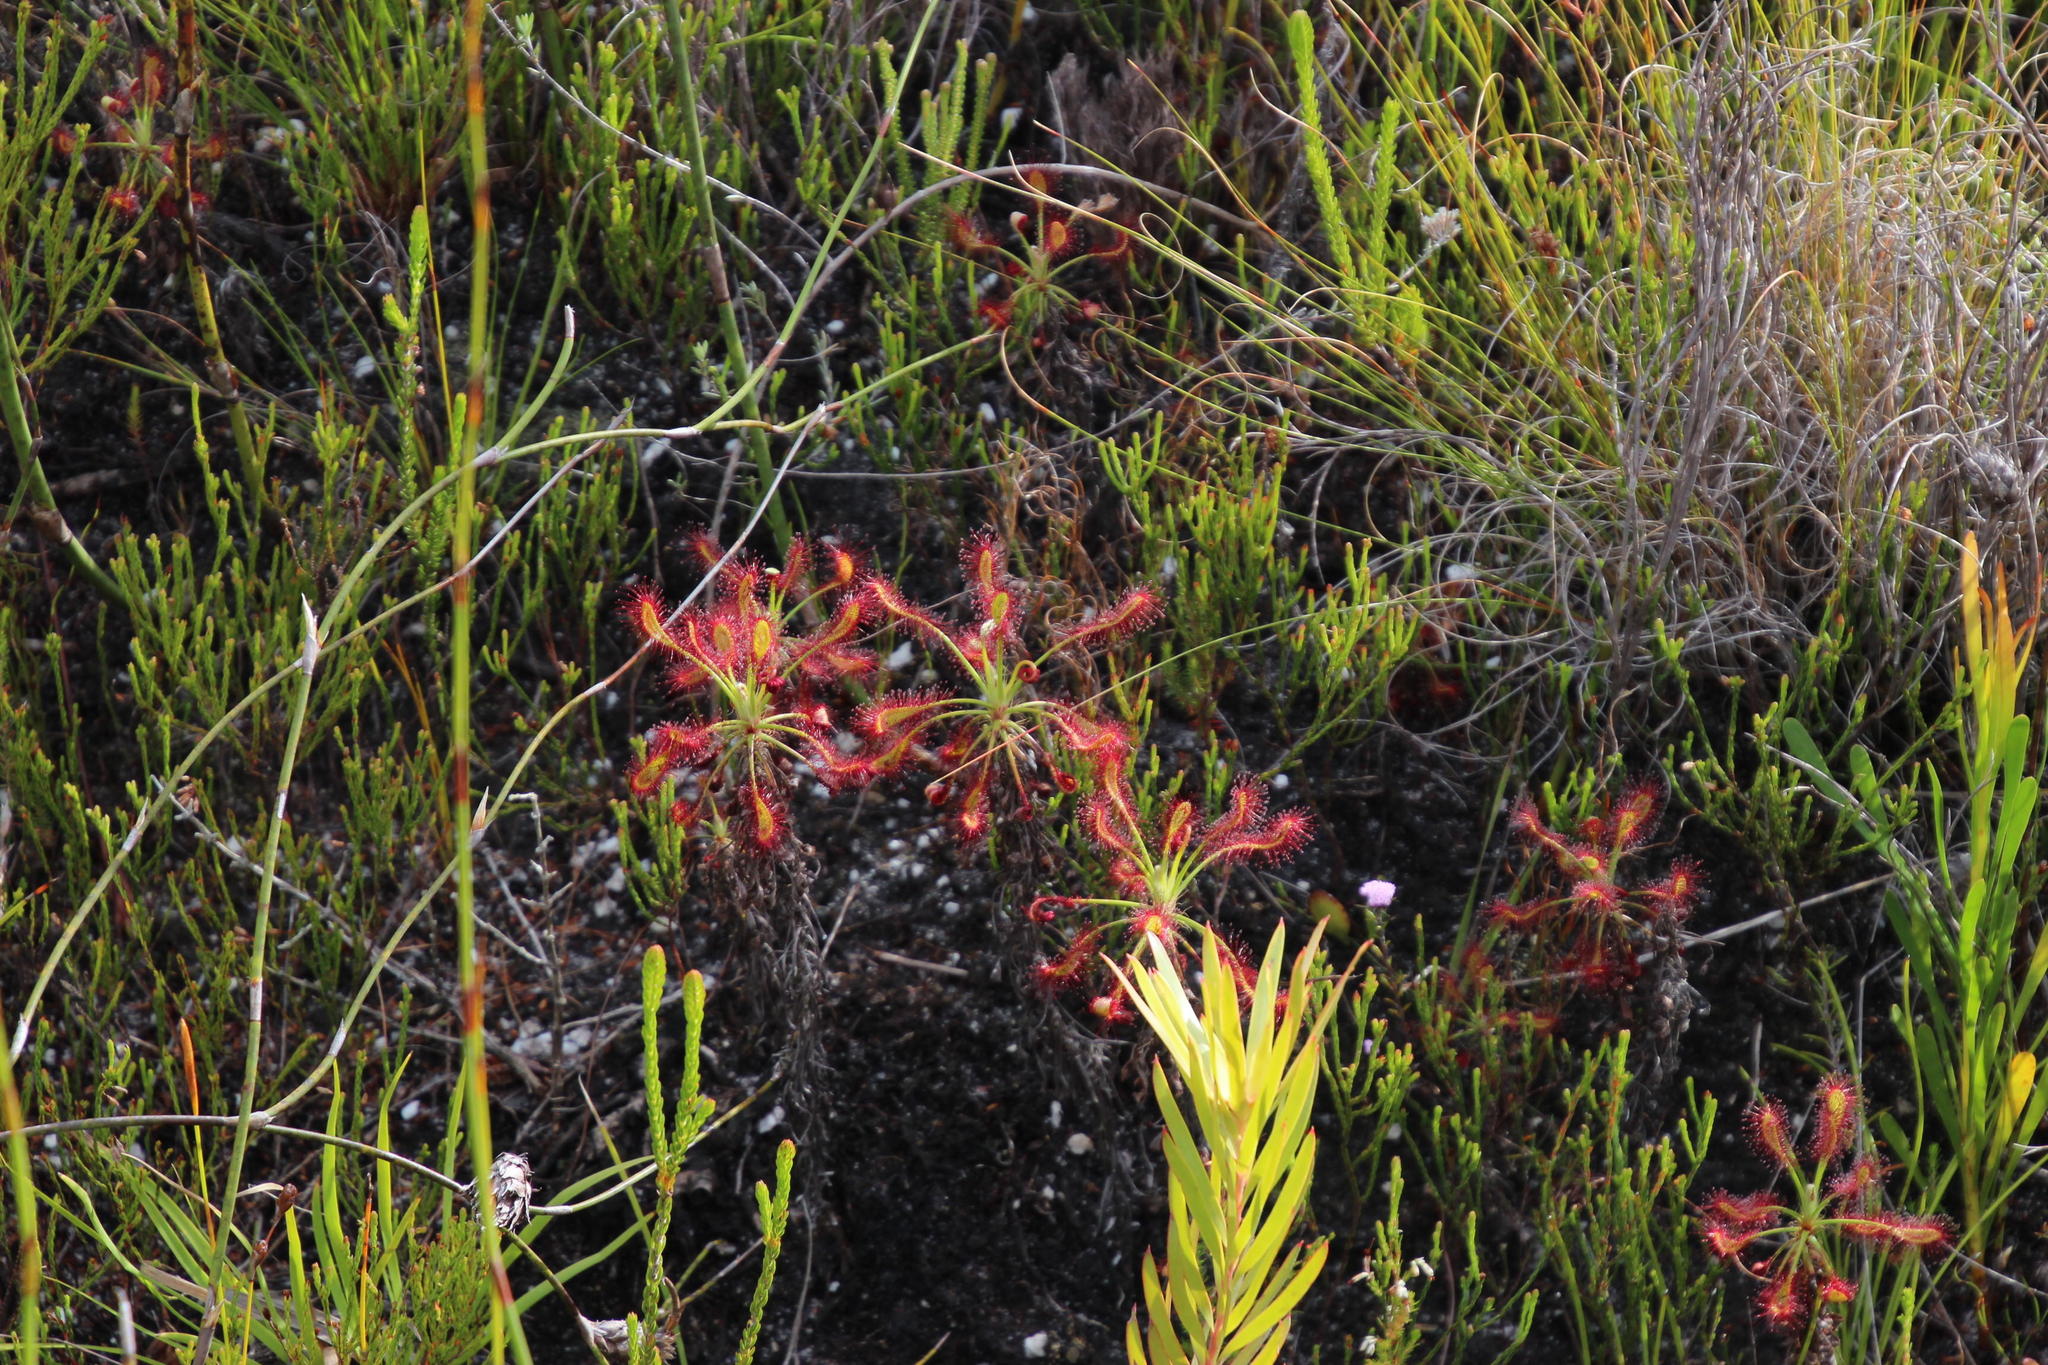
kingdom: Plantae
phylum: Tracheophyta
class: Magnoliopsida
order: Caryophyllales
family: Droseraceae
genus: Drosera
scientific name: Drosera glabripes
